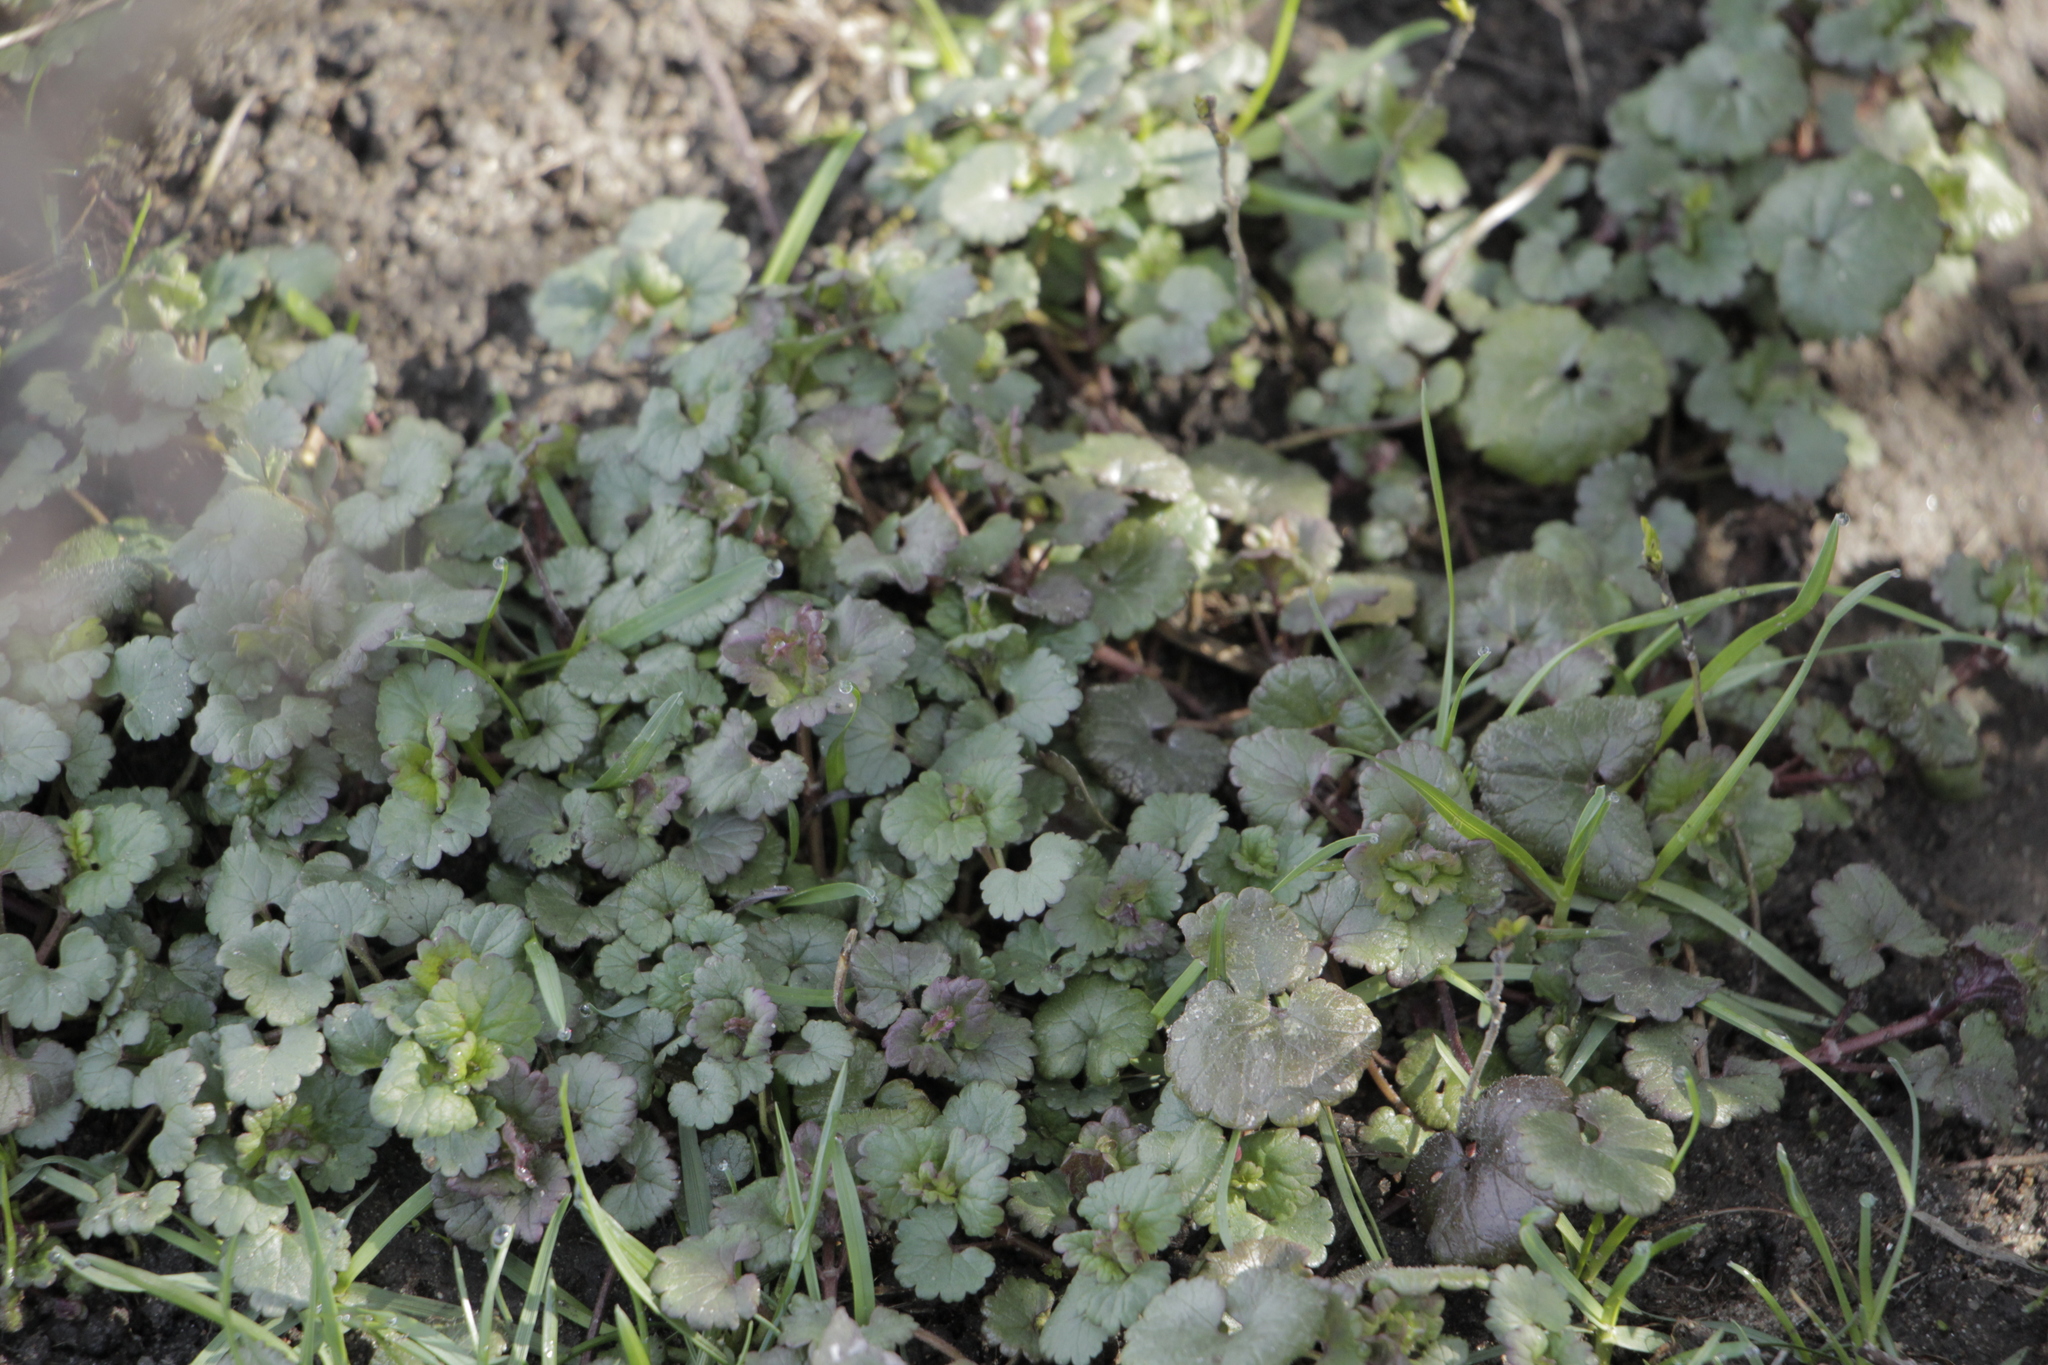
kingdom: Plantae
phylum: Tracheophyta
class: Magnoliopsida
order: Lamiales
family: Lamiaceae
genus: Lamium
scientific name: Lamium amplexicaule
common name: Henbit dead-nettle
